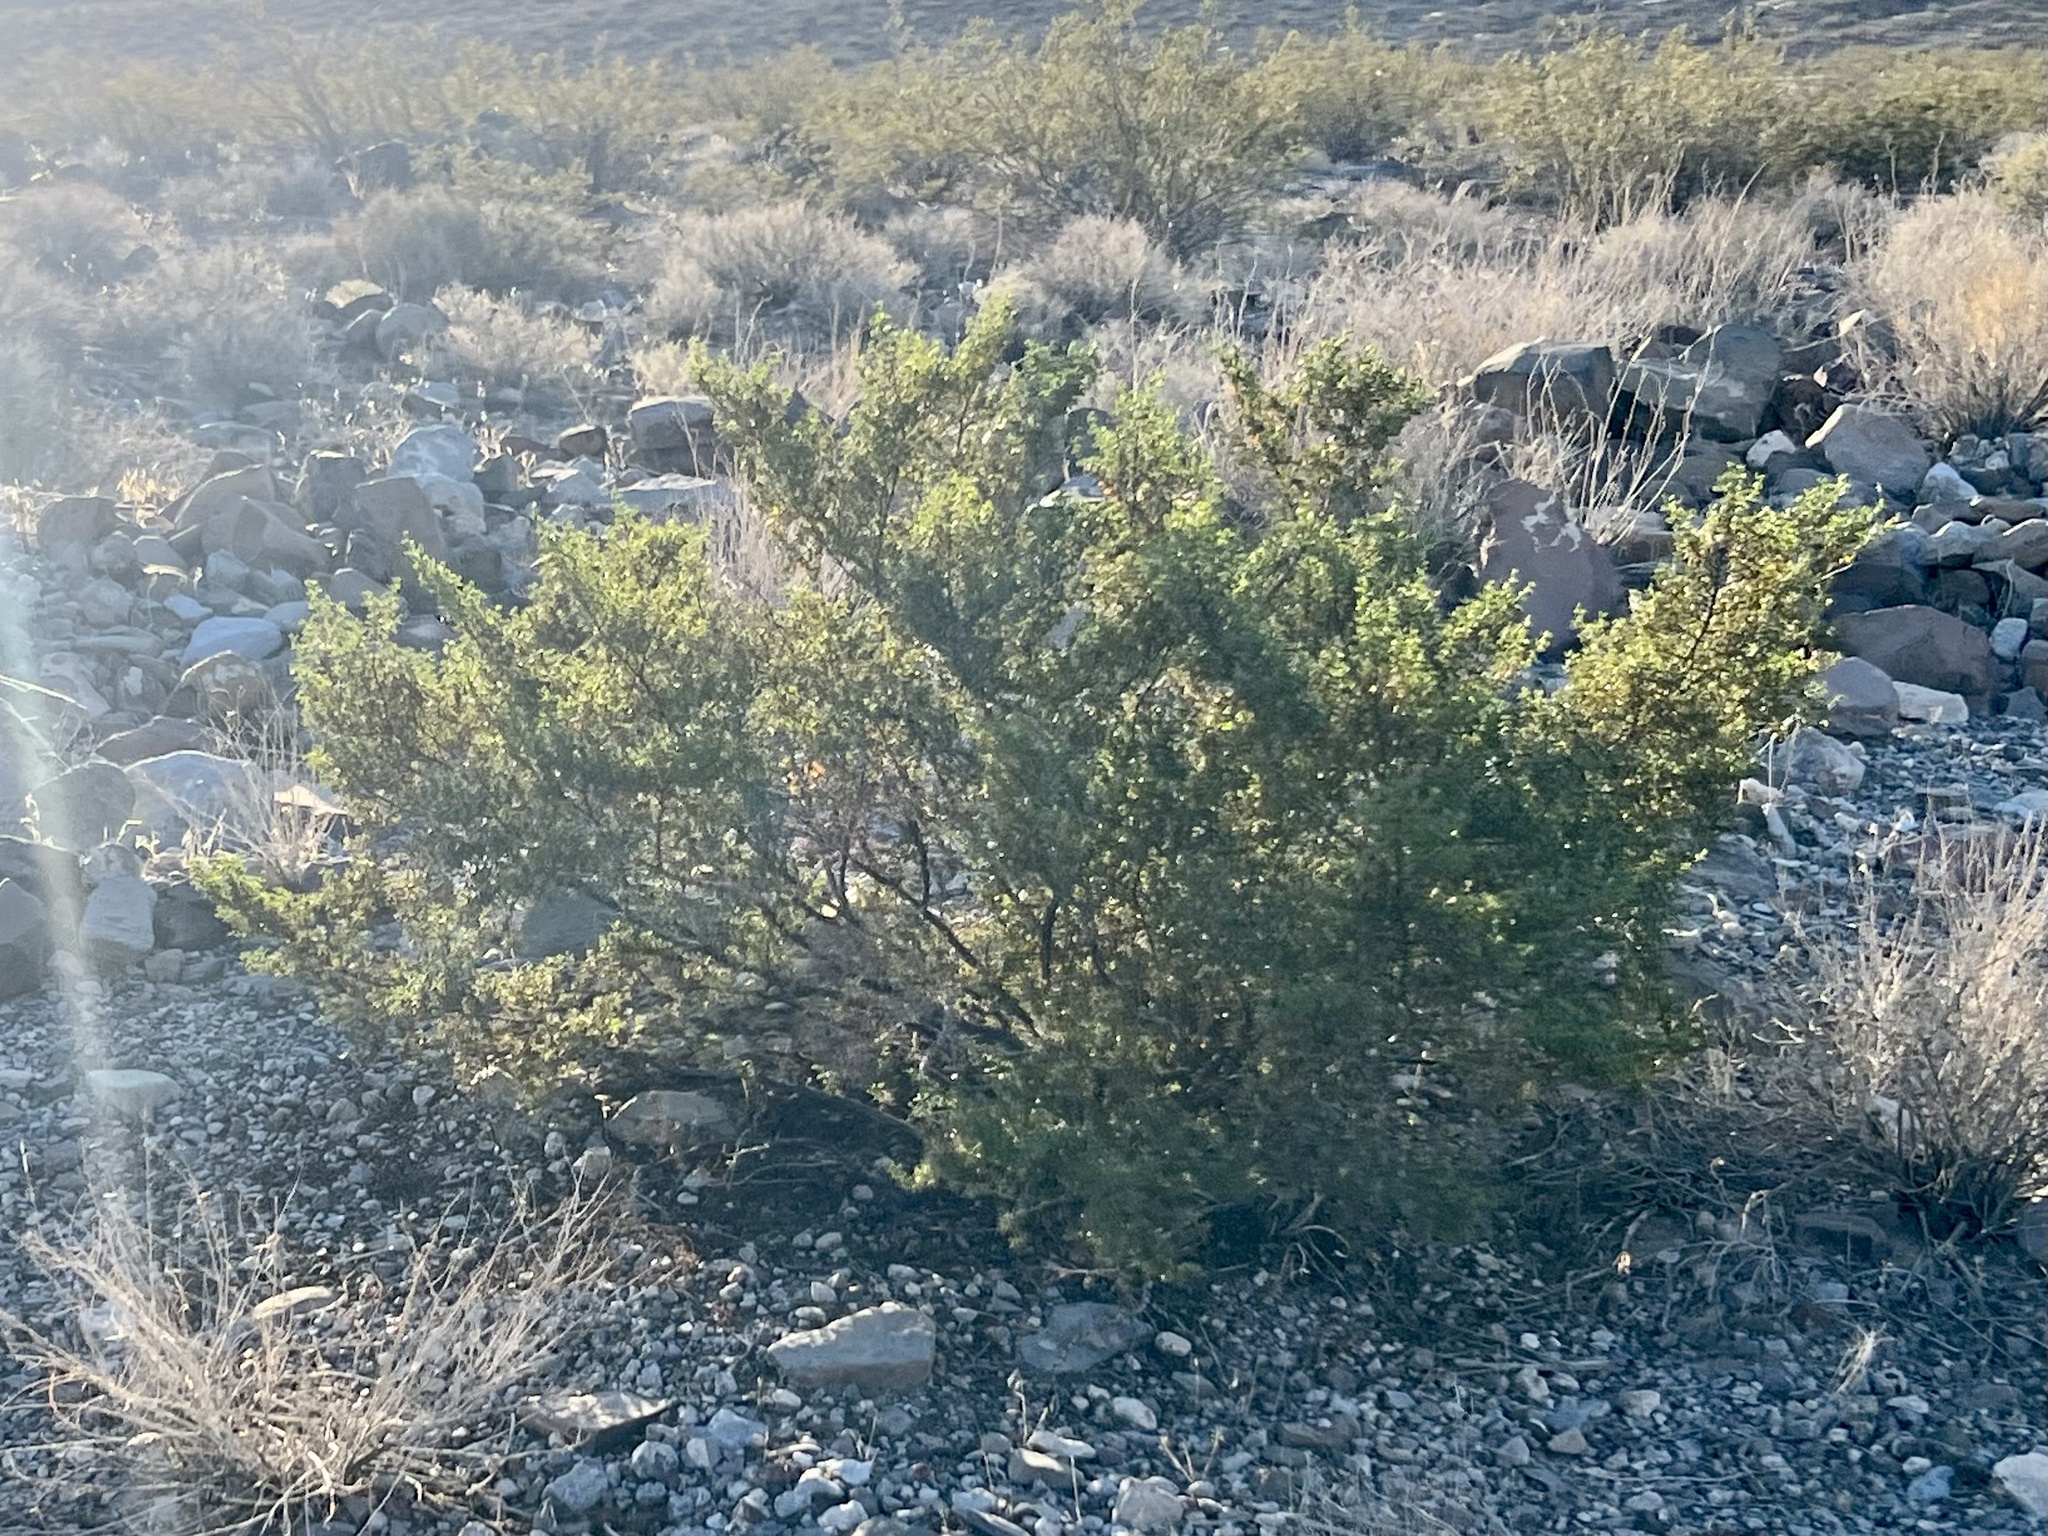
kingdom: Plantae
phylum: Tracheophyta
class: Magnoliopsida
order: Zygophyllales
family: Zygophyllaceae
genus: Larrea
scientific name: Larrea tridentata
